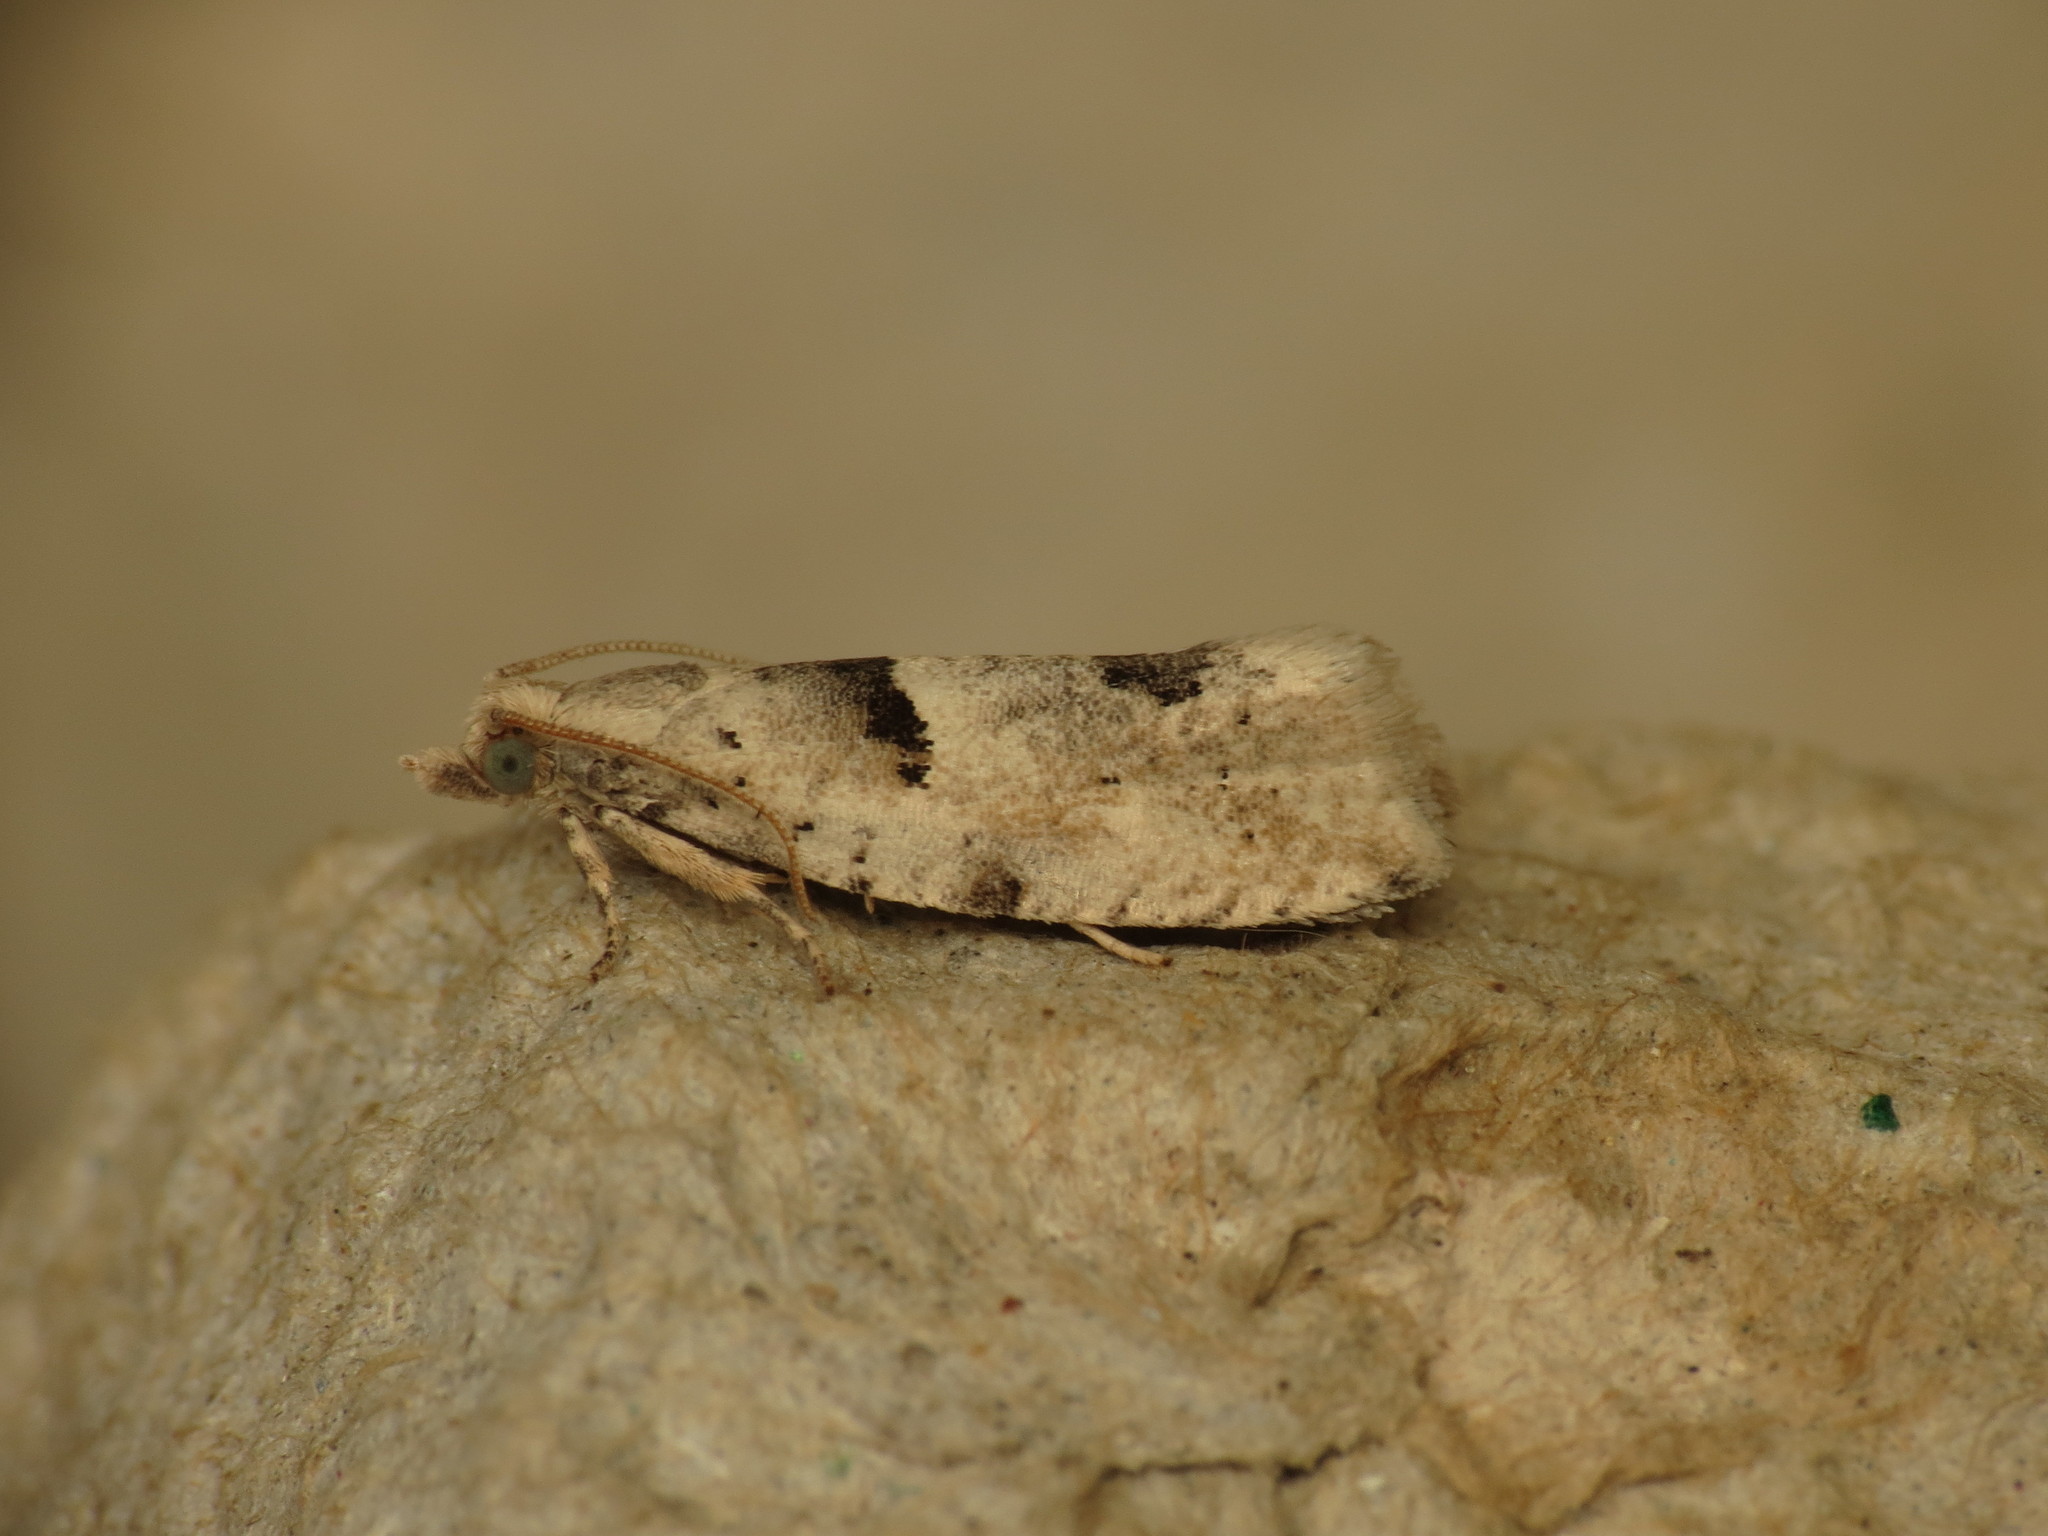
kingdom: Animalia
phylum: Arthropoda
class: Insecta
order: Lepidoptera
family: Tortricidae
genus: Epinotia
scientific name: Epinotia bilunana
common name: Crescent bell
